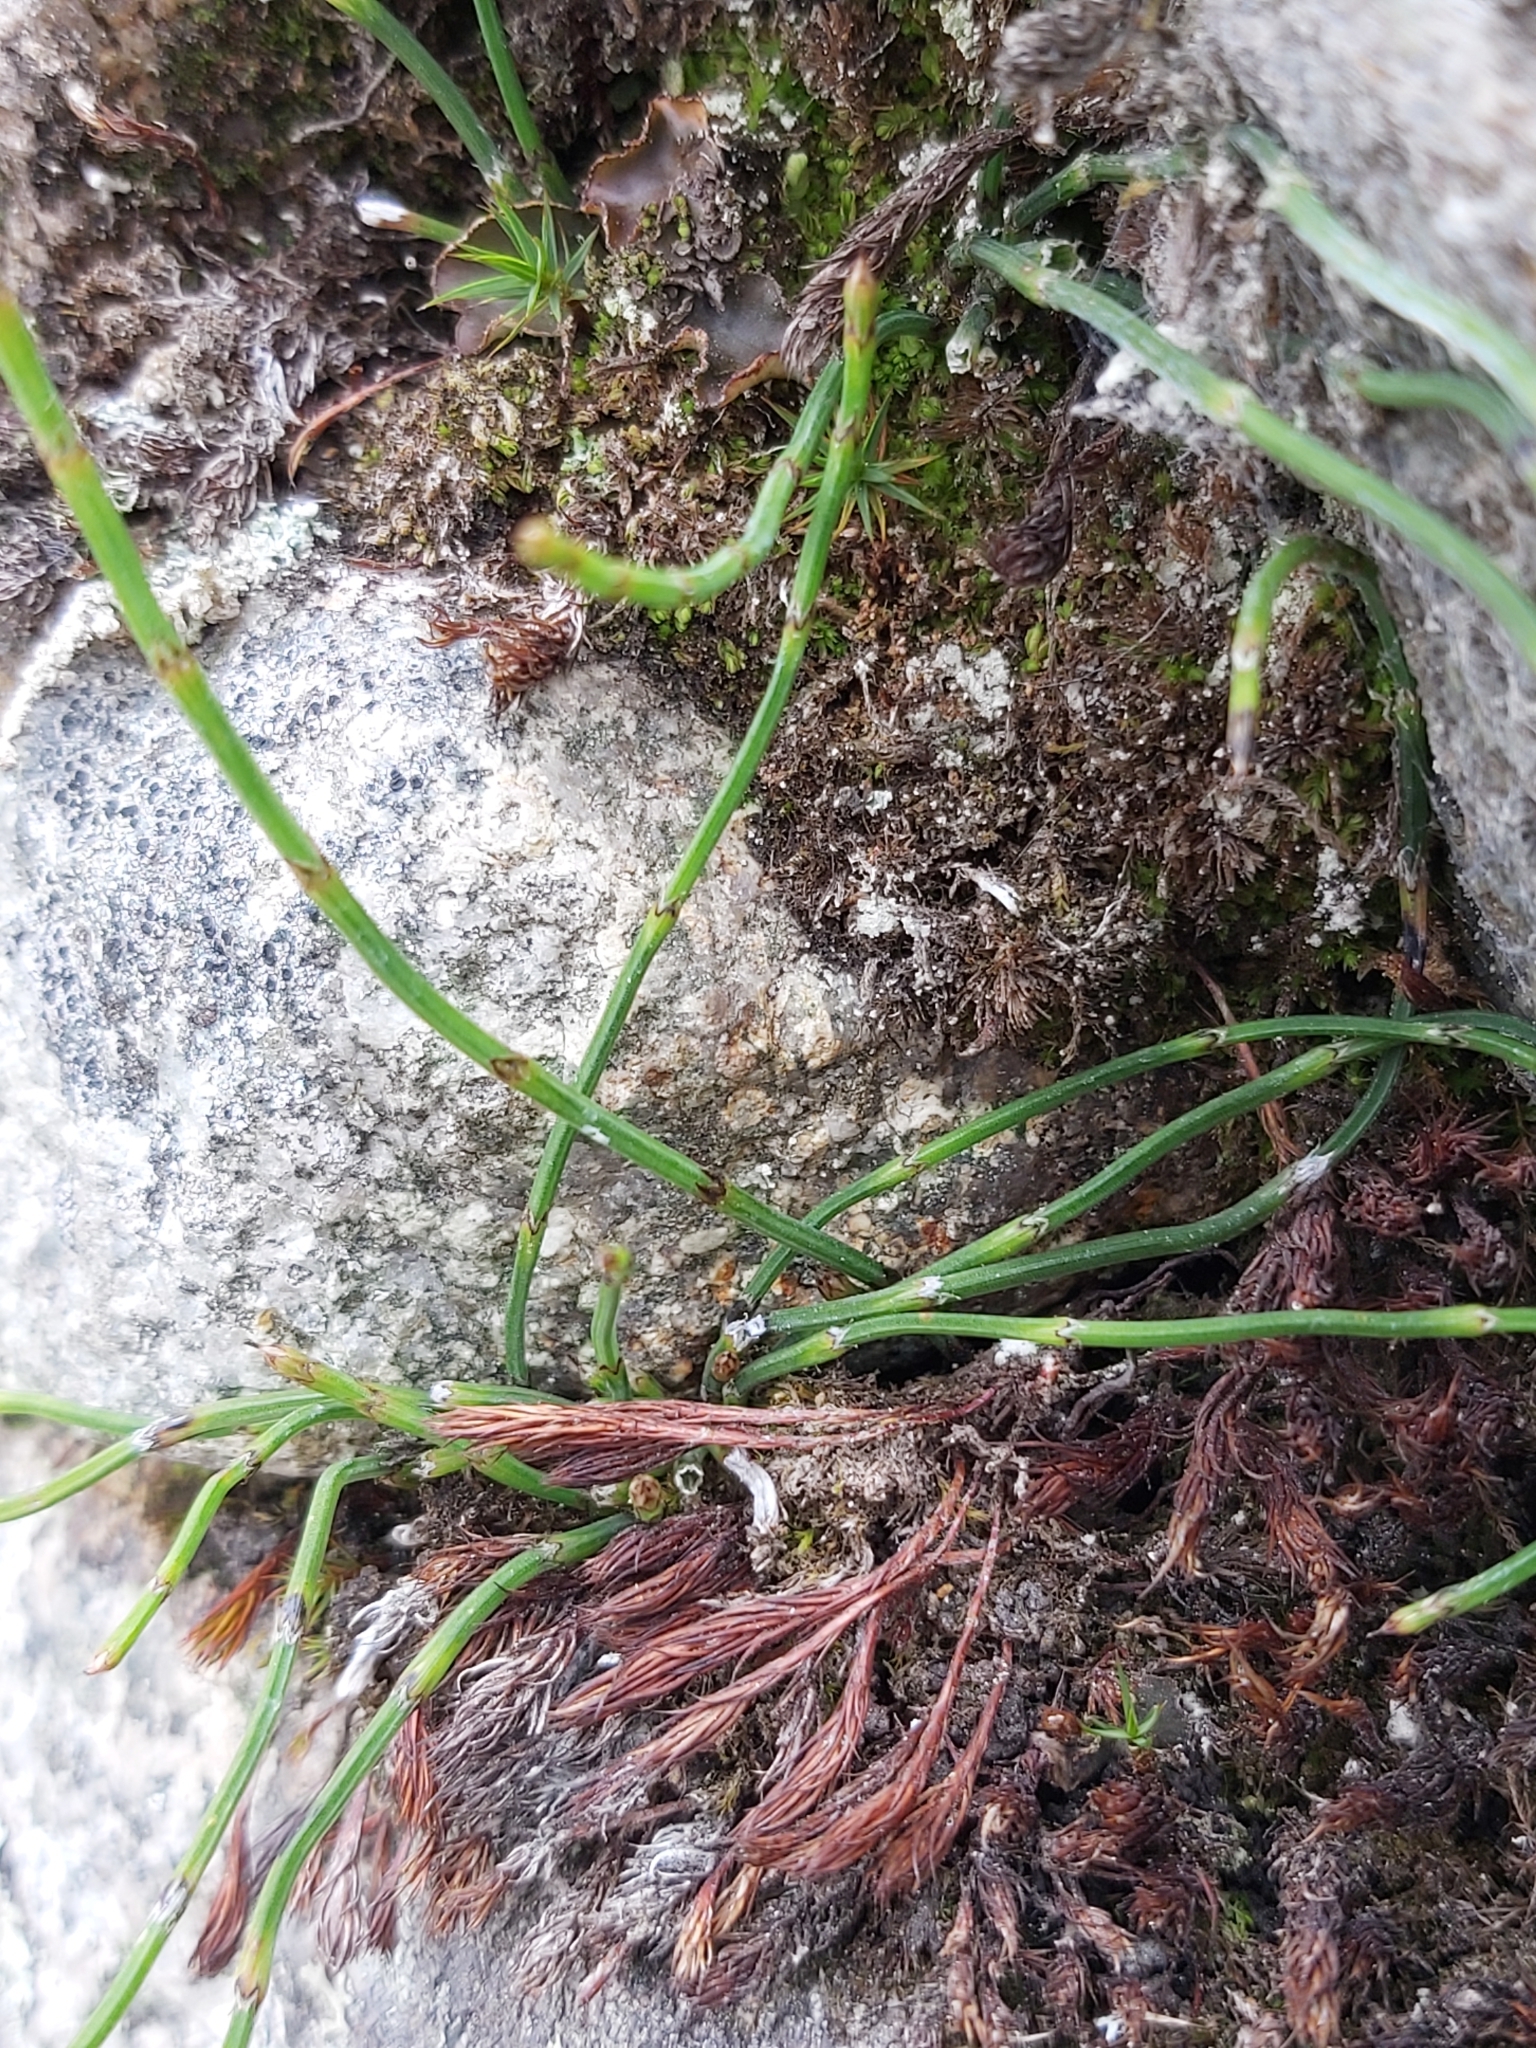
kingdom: Plantae
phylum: Tracheophyta
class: Polypodiopsida
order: Equisetales
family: Equisetaceae
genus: Equisetum
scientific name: Equisetum bogotense
